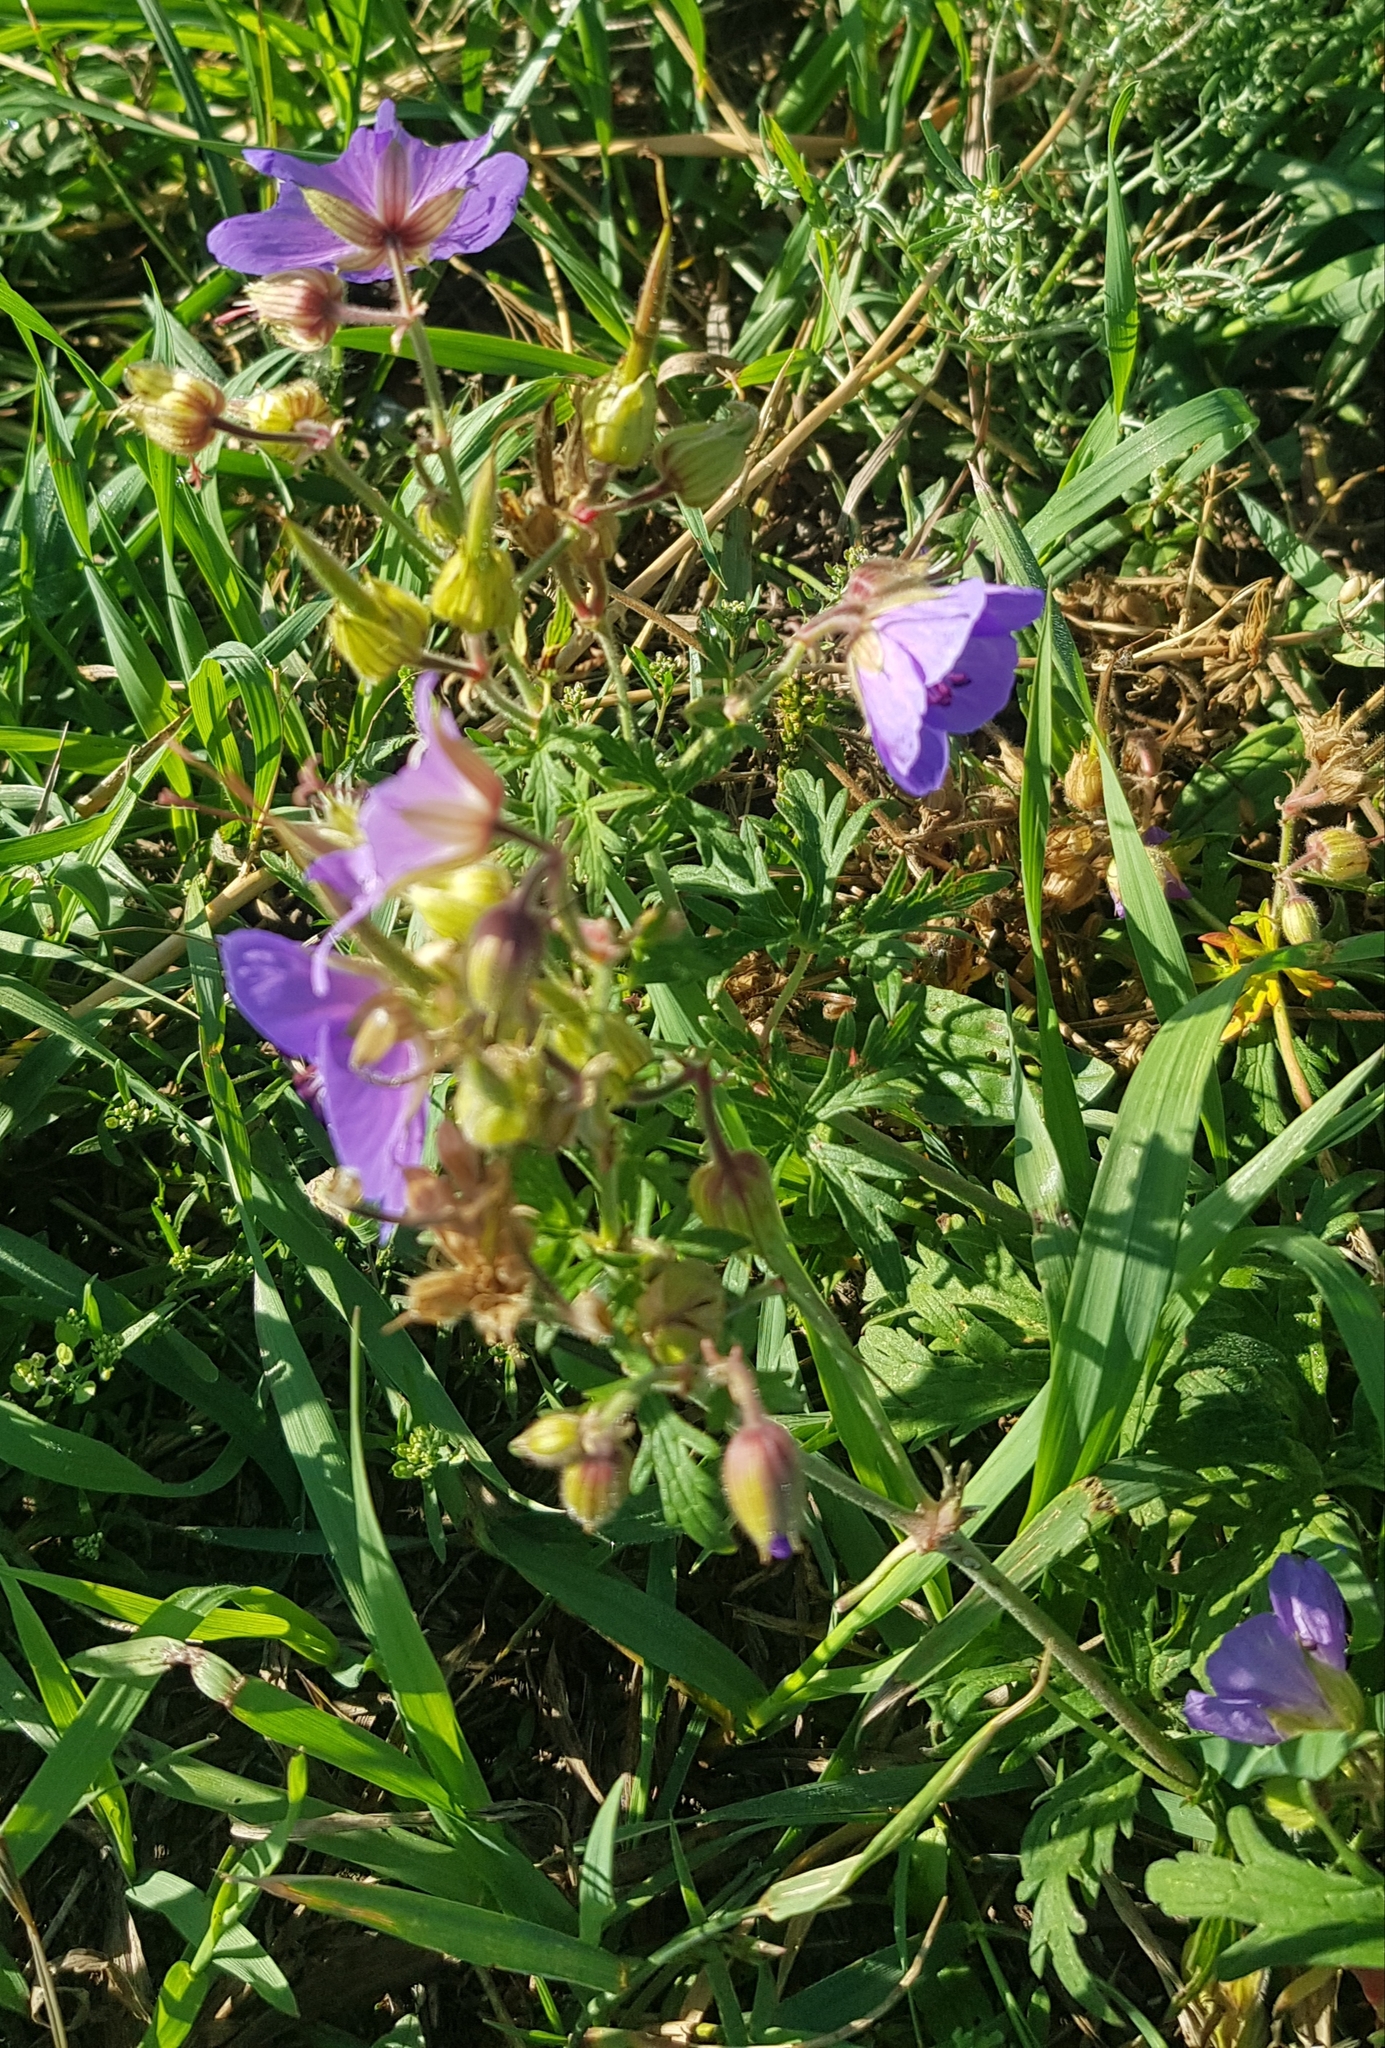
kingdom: Plantae
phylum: Tracheophyta
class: Magnoliopsida
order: Geraniales
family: Geraniaceae
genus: Geranium
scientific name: Geranium pratense
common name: Meadow crane's-bill
